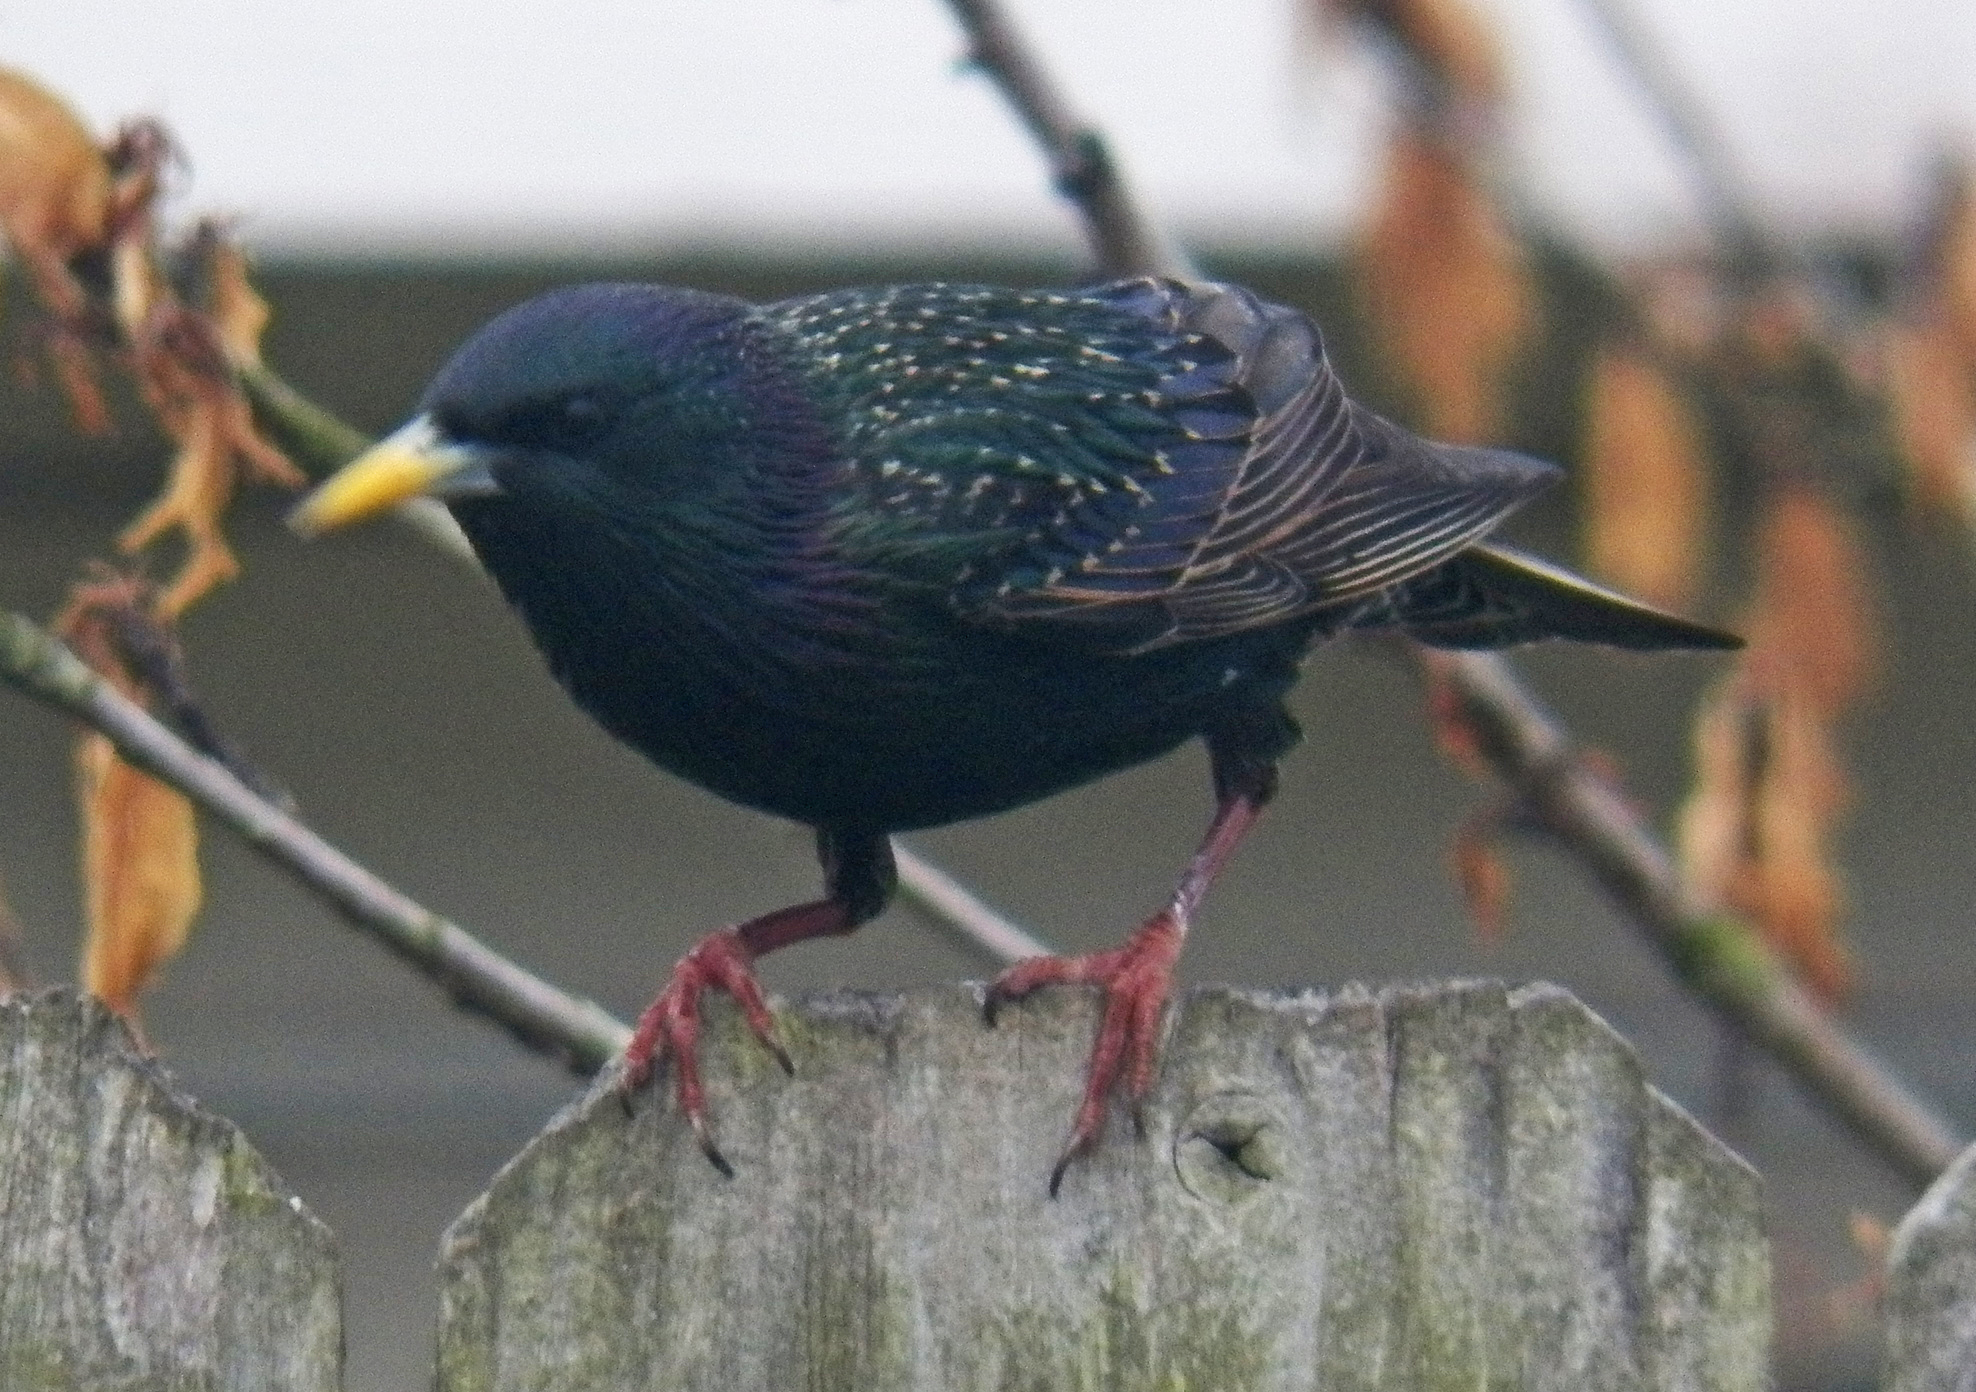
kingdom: Animalia
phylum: Chordata
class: Aves
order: Passeriformes
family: Sturnidae
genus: Sturnus
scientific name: Sturnus vulgaris
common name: Common starling
